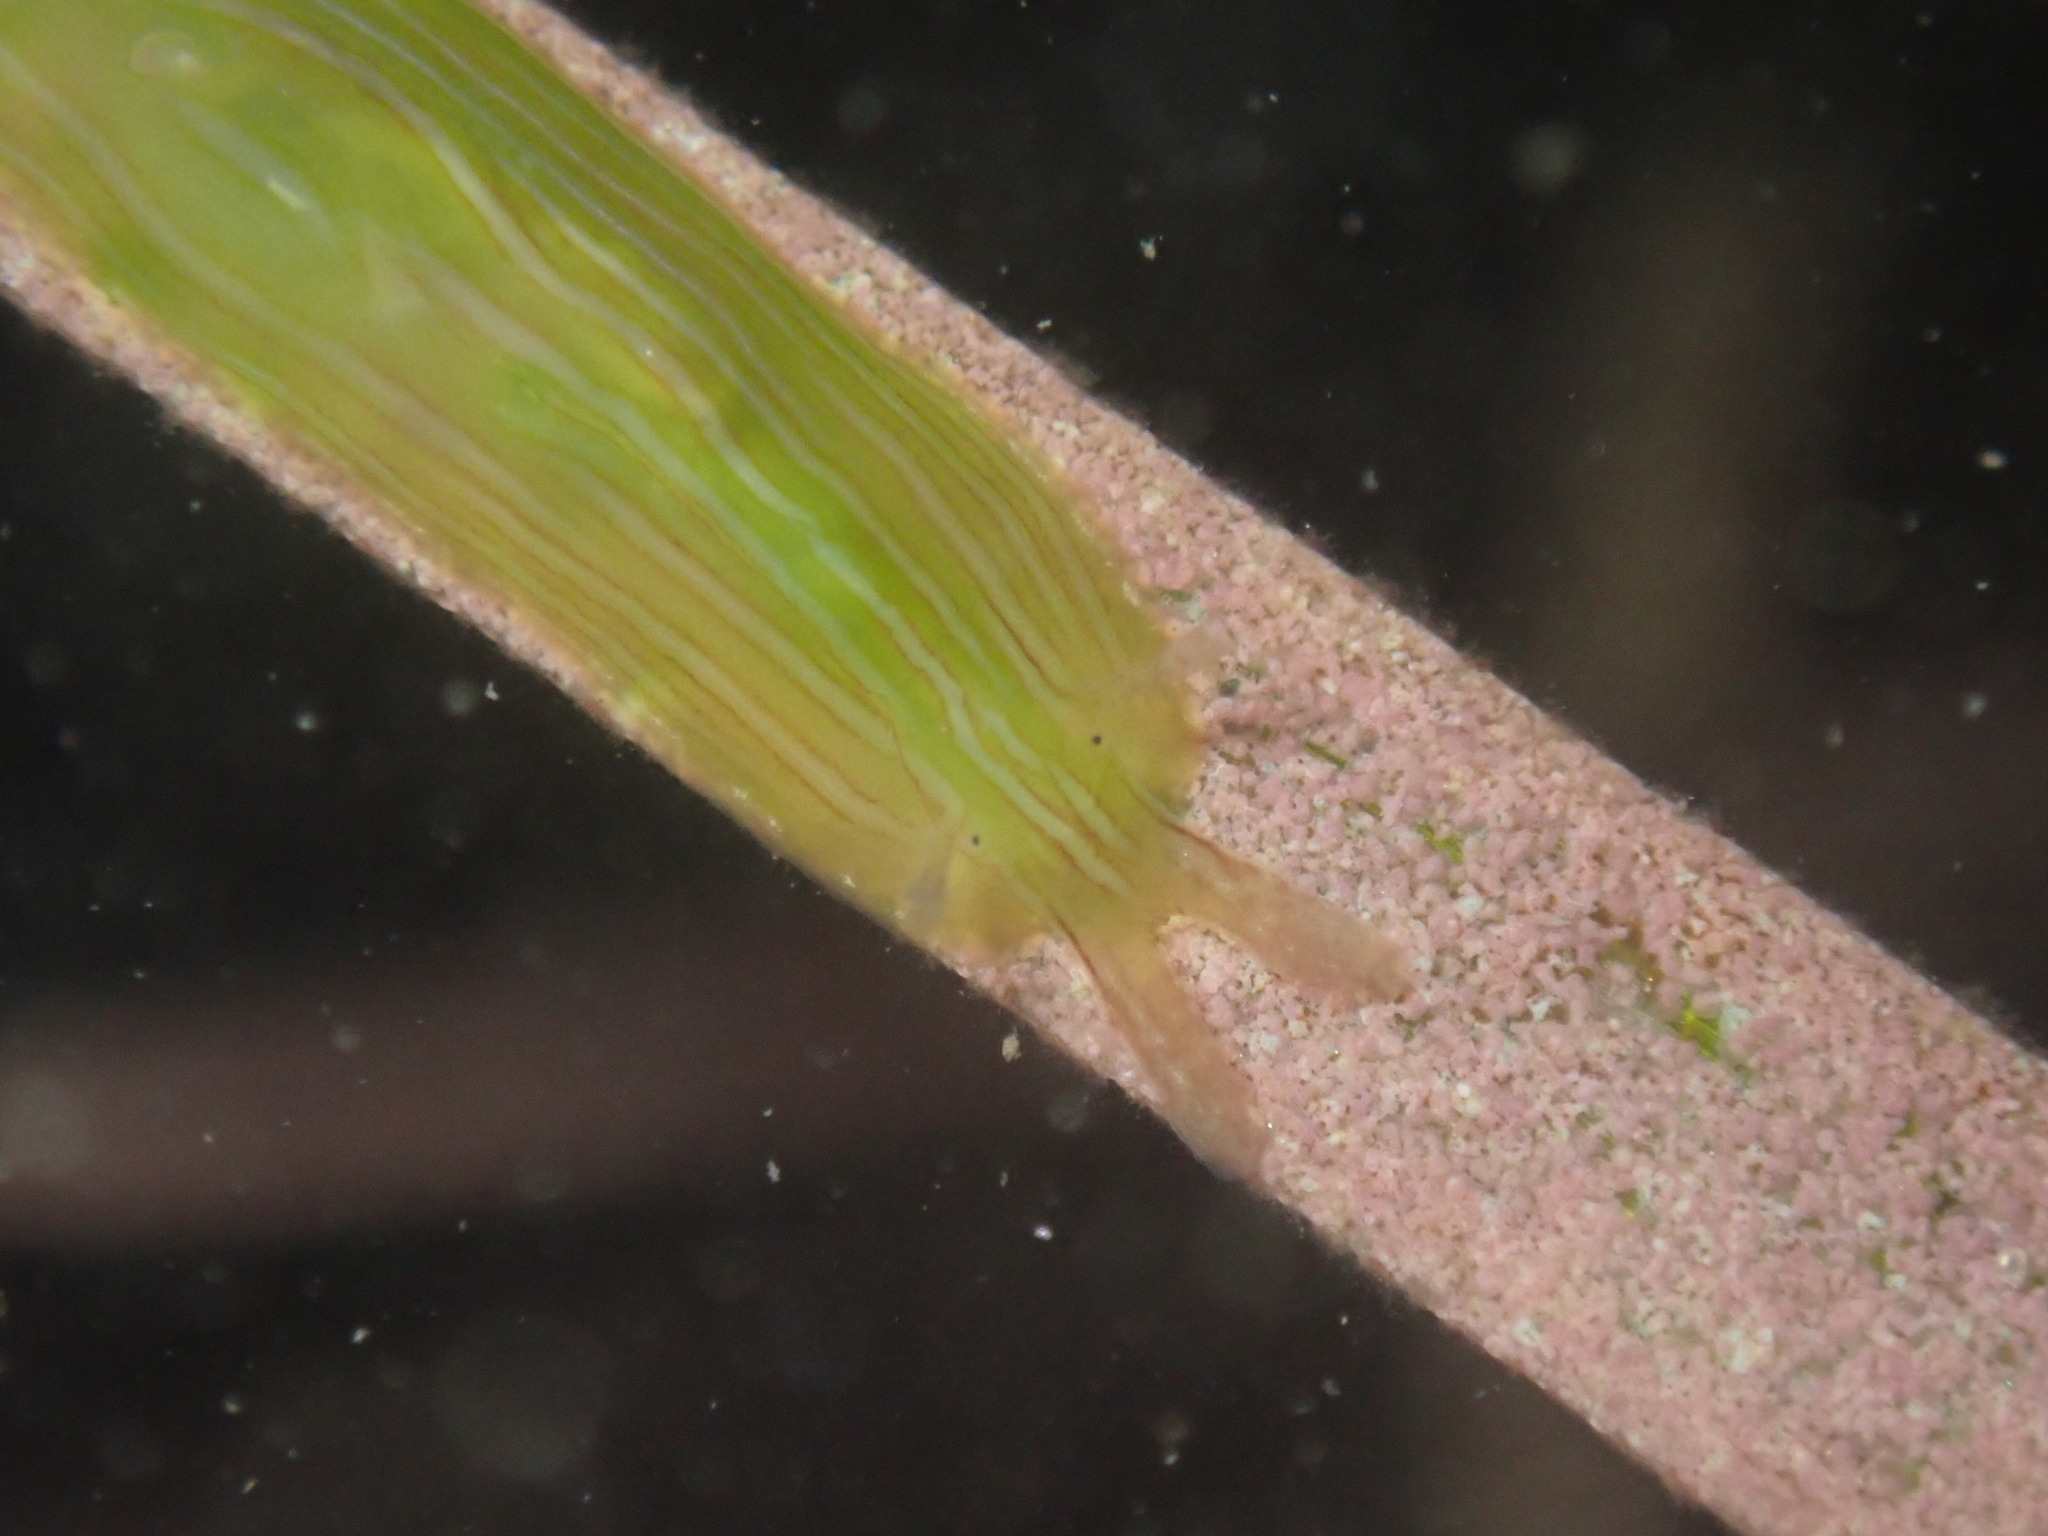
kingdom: Animalia
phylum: Mollusca
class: Gastropoda
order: Aplysiida
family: Aplysiidae
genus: Phyllaplysia
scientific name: Phyllaplysia taylori
